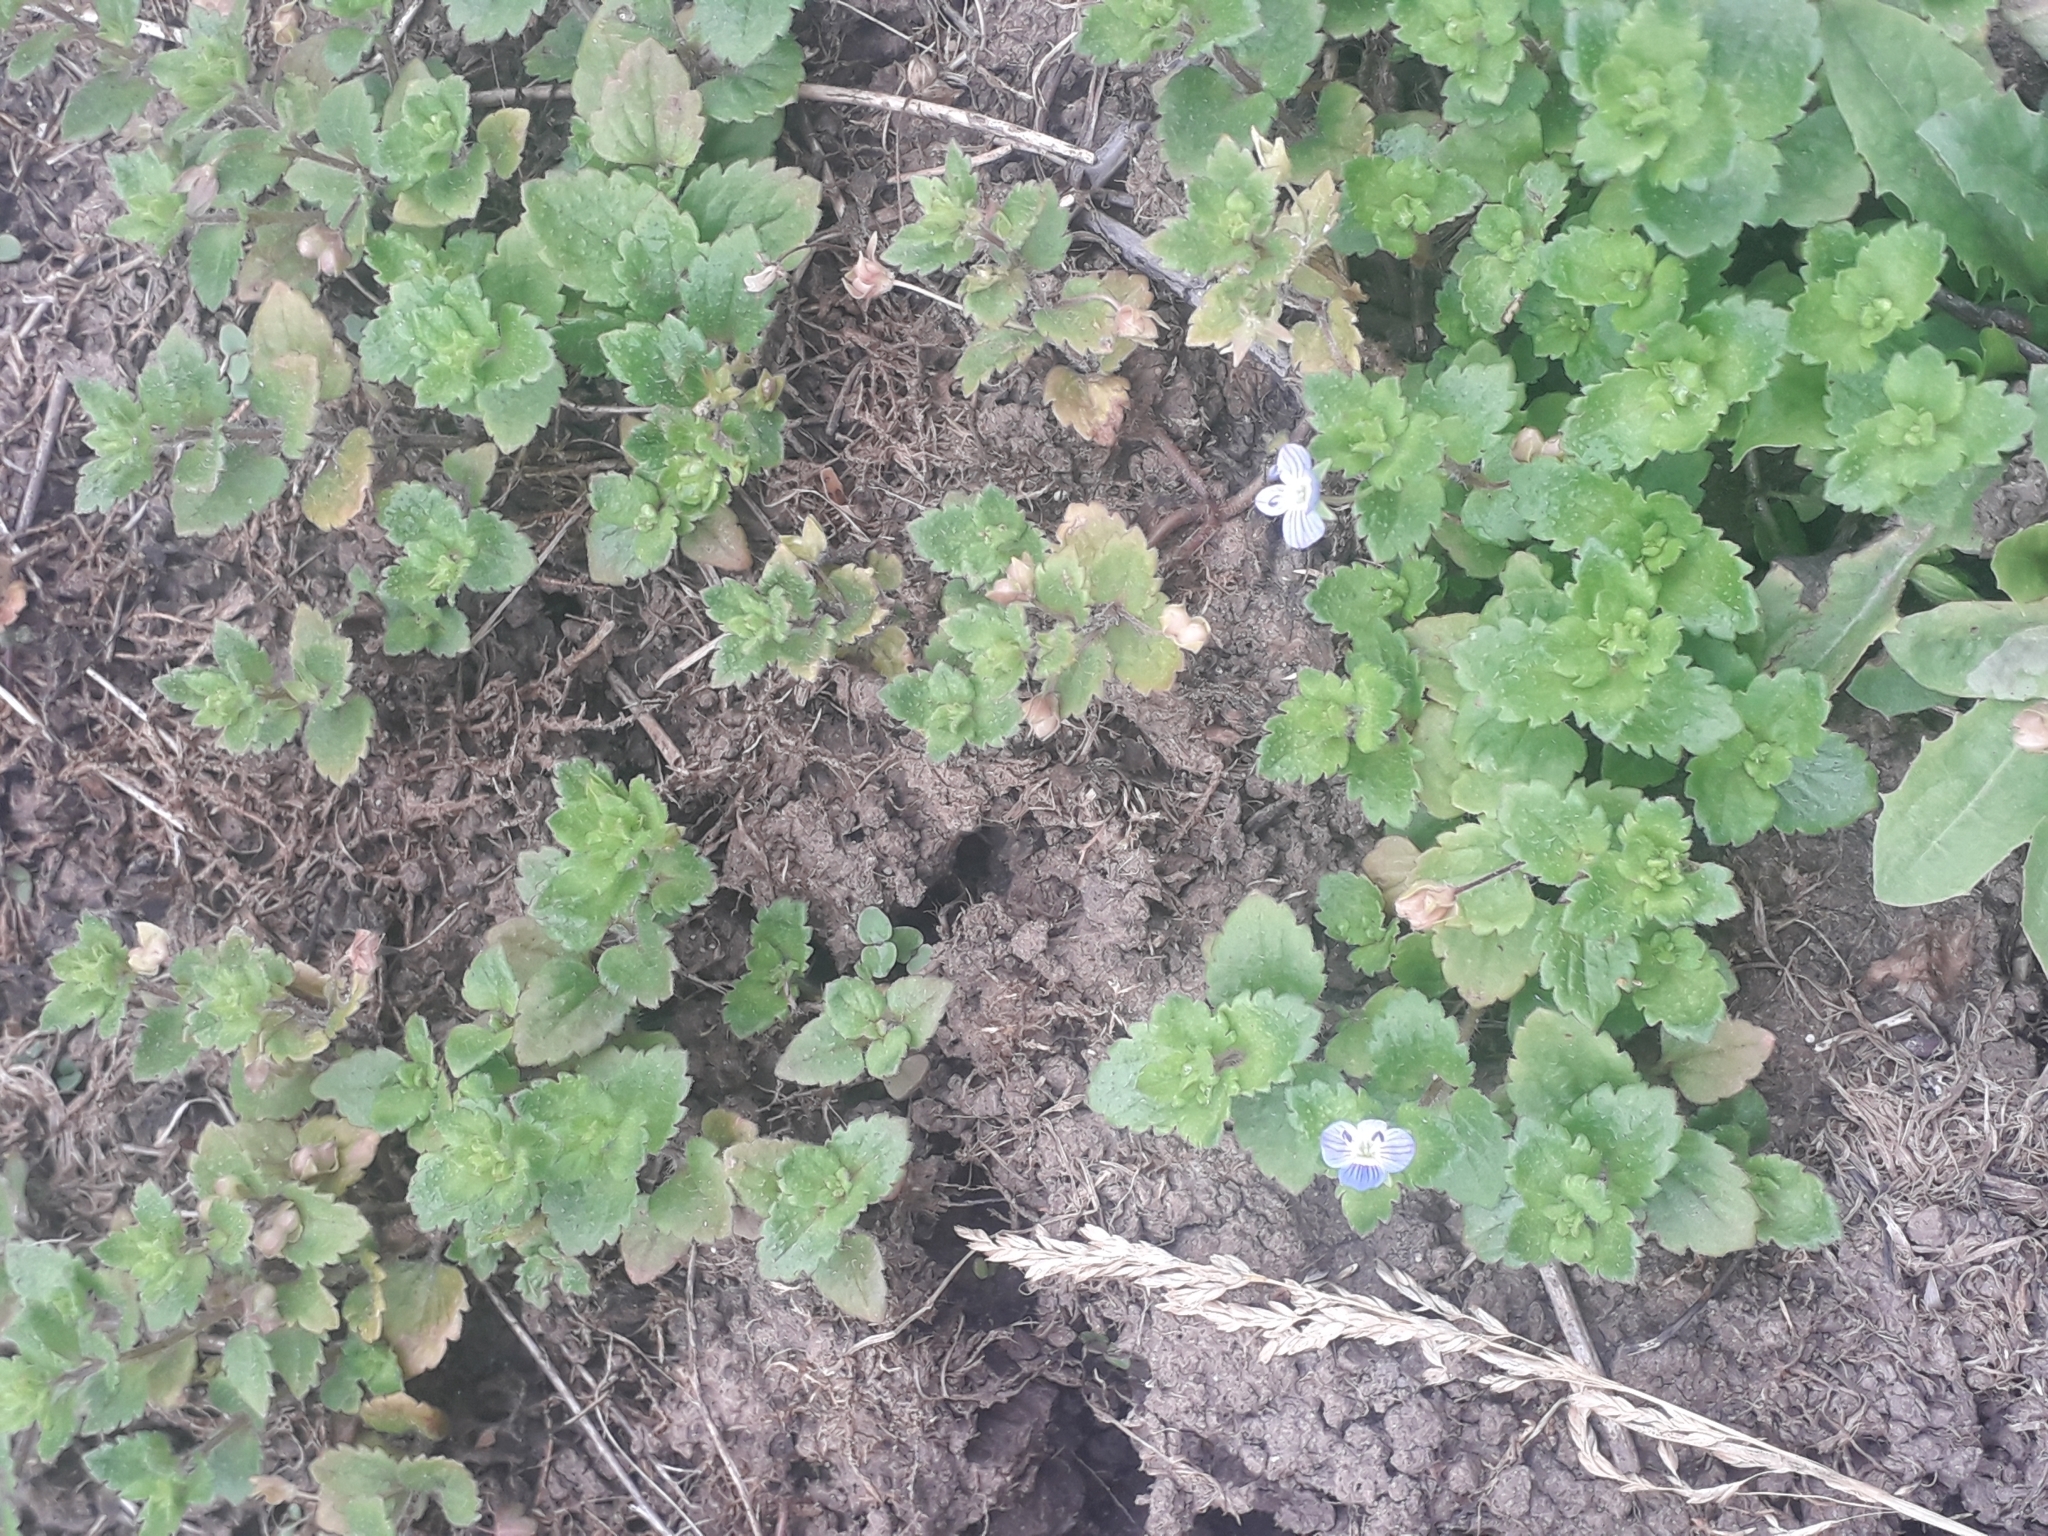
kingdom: Plantae
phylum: Tracheophyta
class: Magnoliopsida
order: Lamiales
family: Plantaginaceae
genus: Veronica
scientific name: Veronica persica
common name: Common field-speedwell
